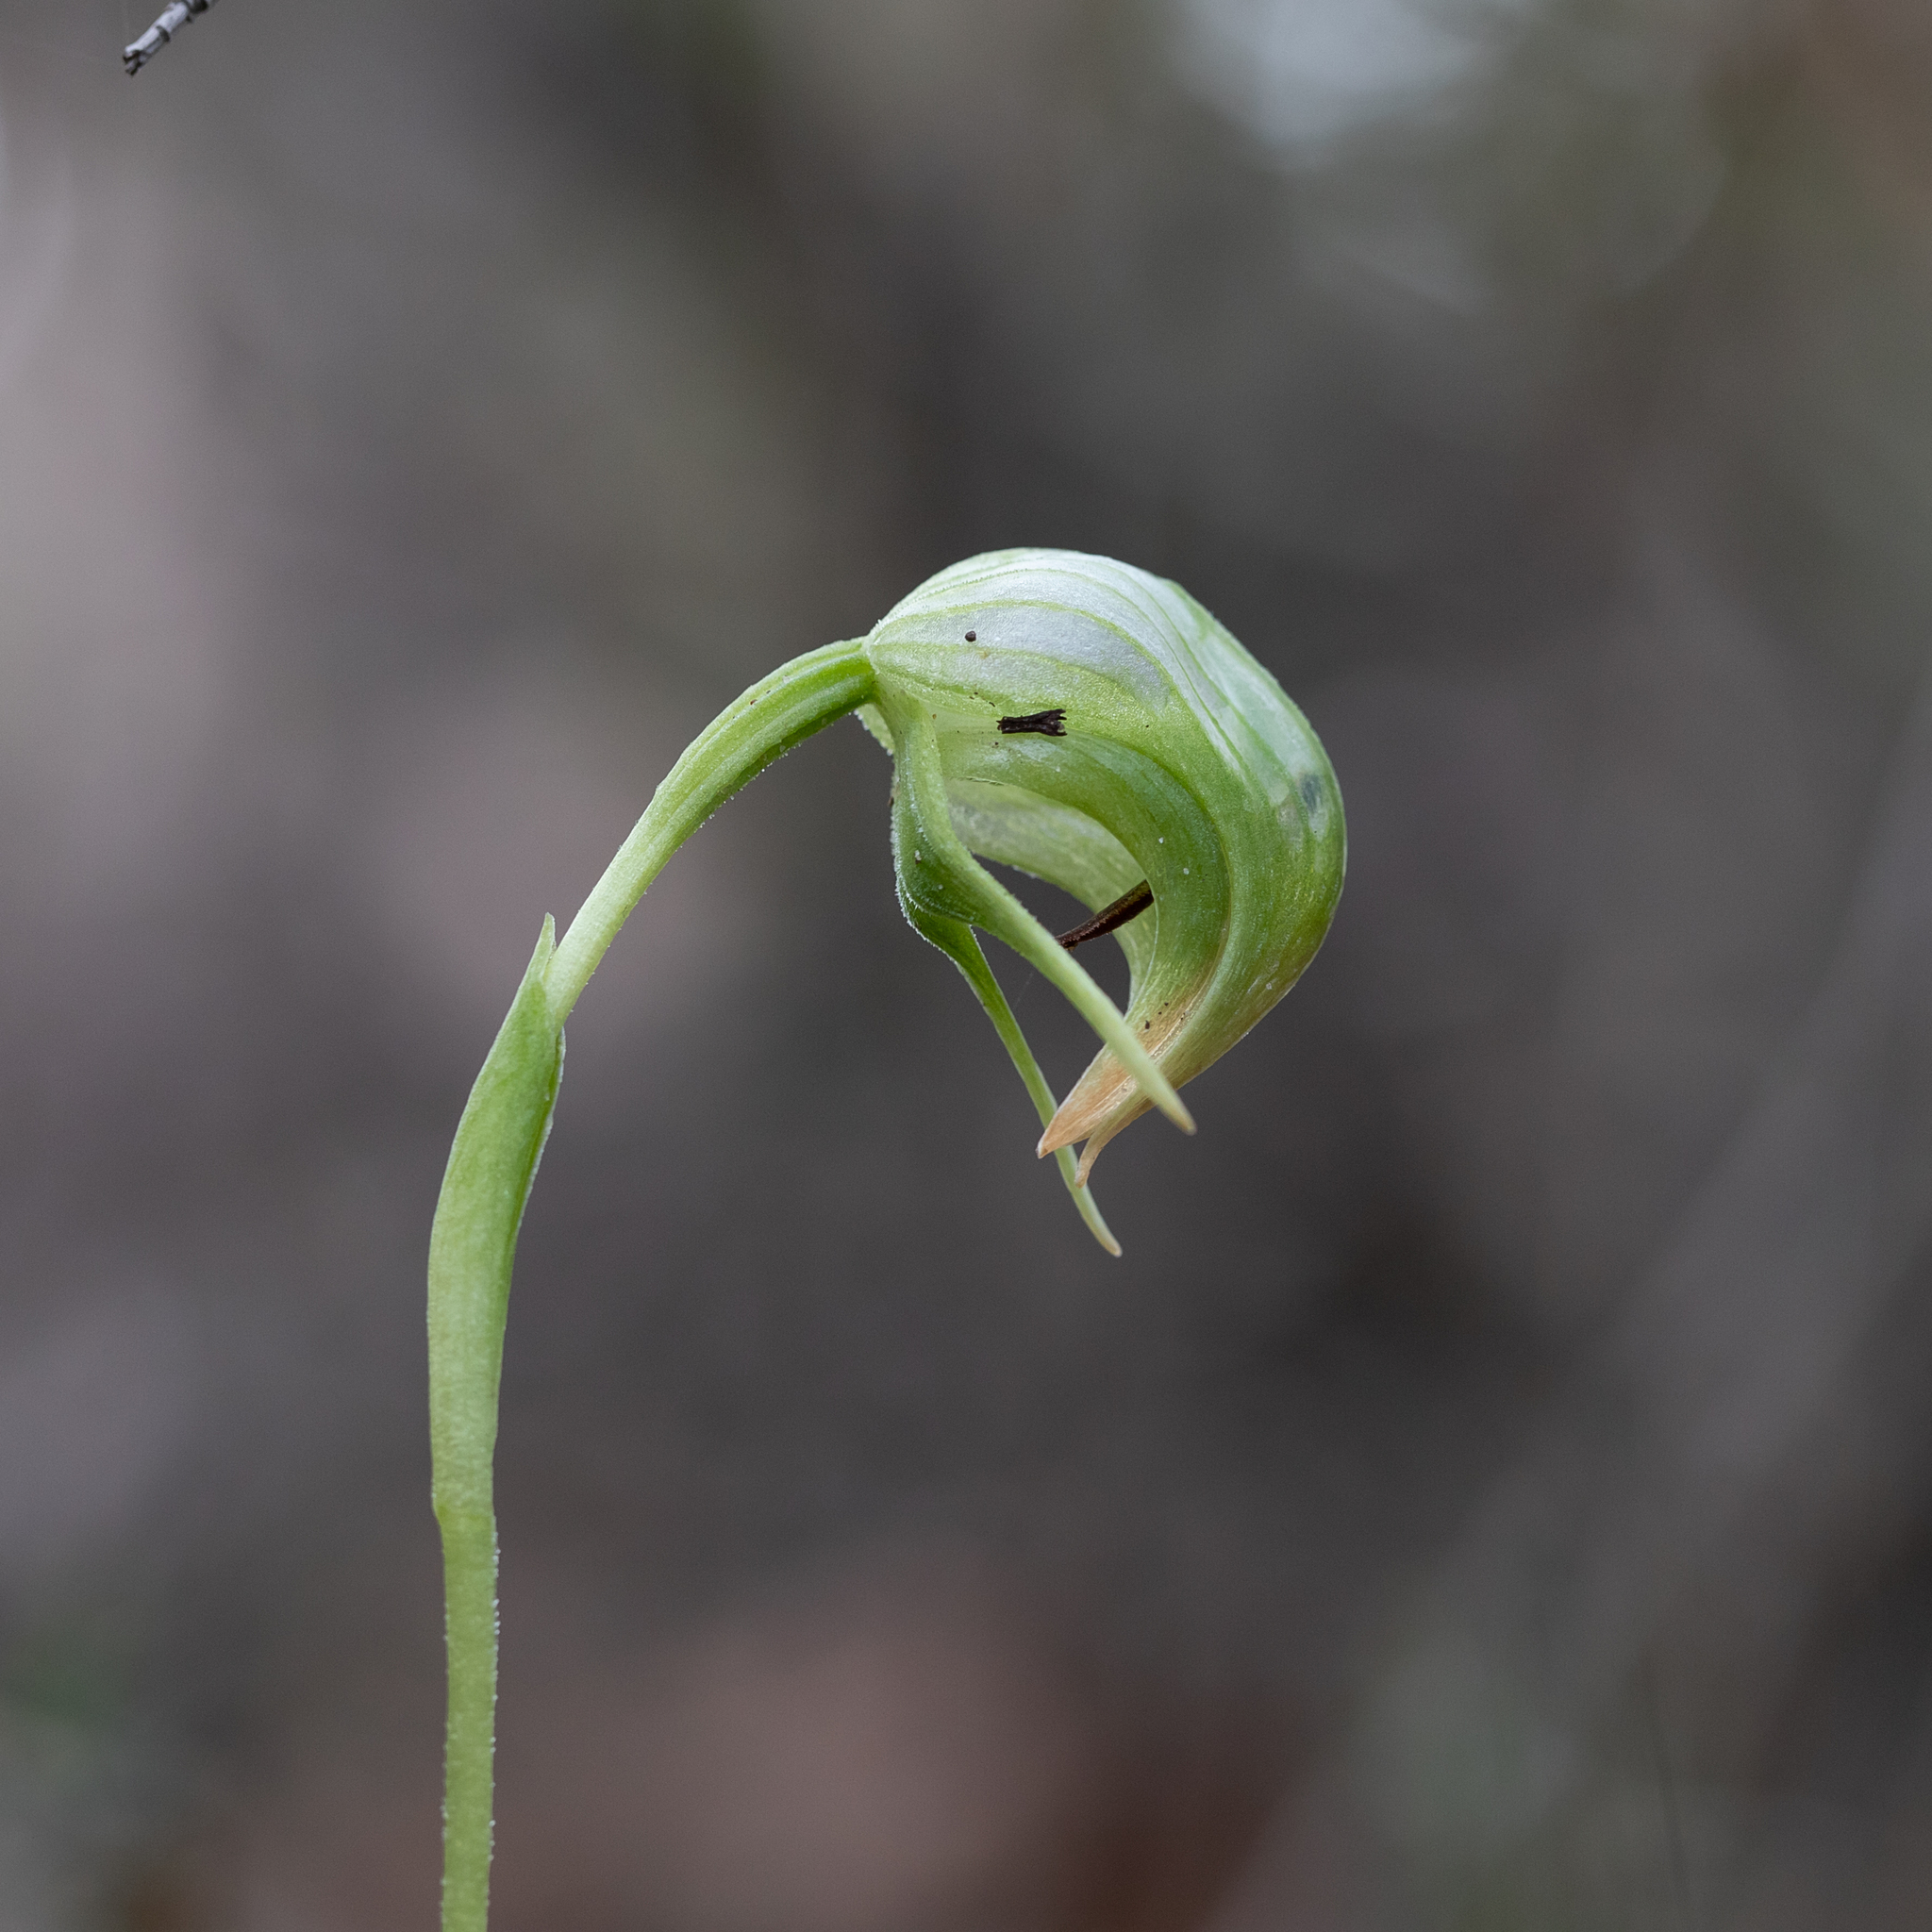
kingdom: Plantae
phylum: Tracheophyta
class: Liliopsida
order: Asparagales
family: Orchidaceae
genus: Pterostylis
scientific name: Pterostylis nutans
